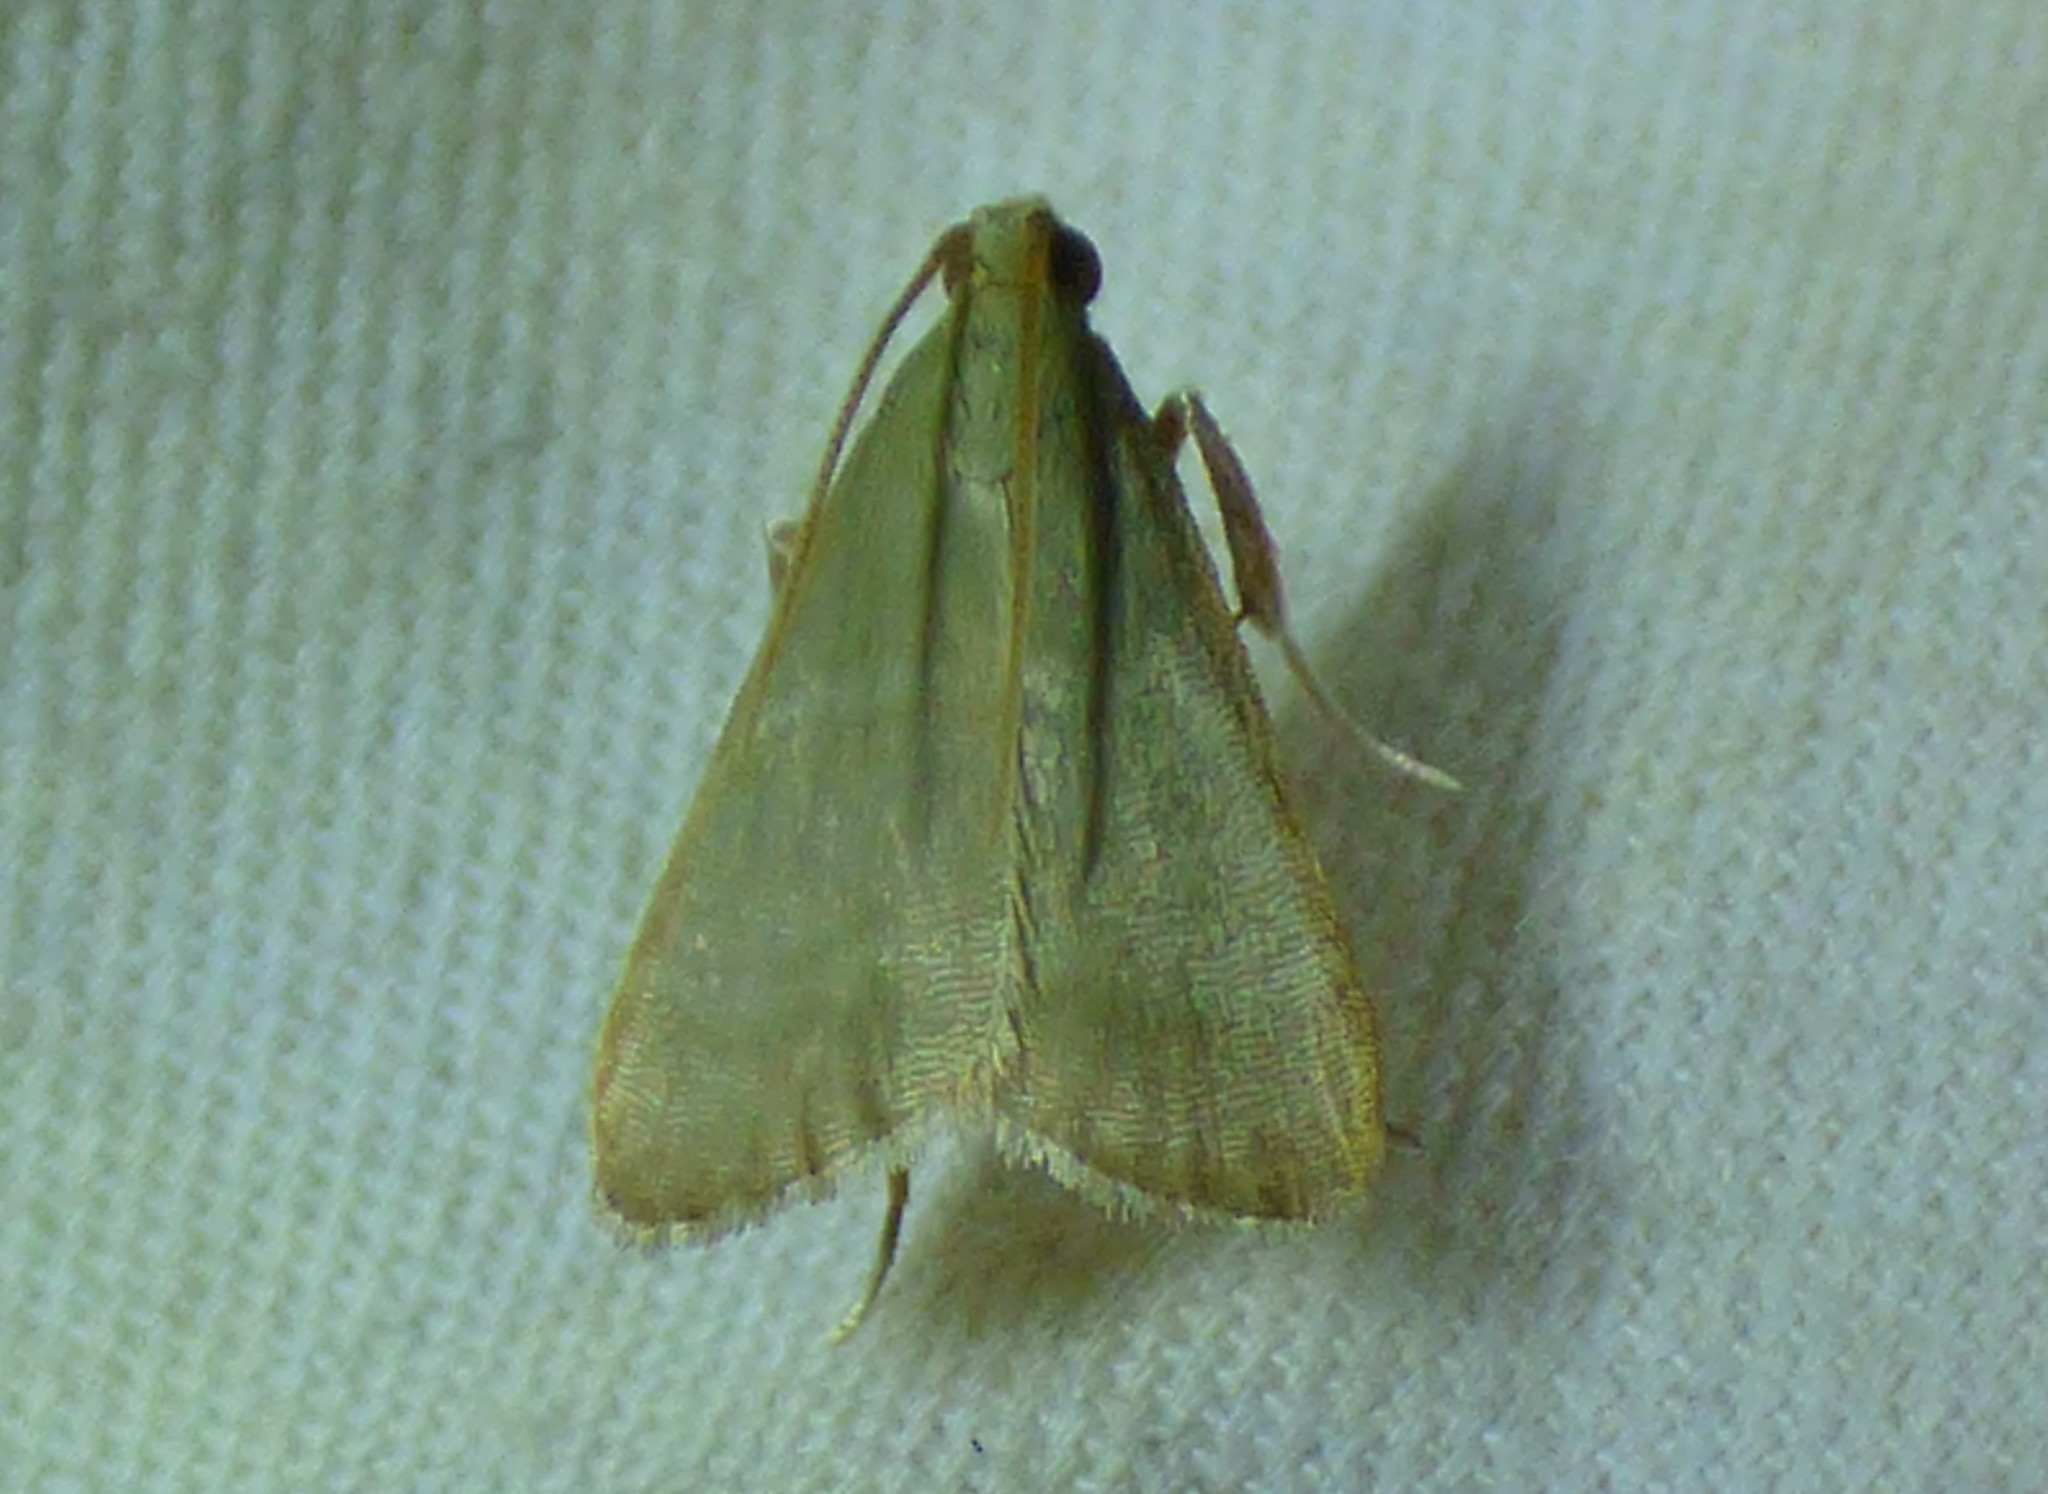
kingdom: Animalia
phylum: Arthropoda
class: Insecta
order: Lepidoptera
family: Pyralidae
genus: Arta
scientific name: Arta olivalis
